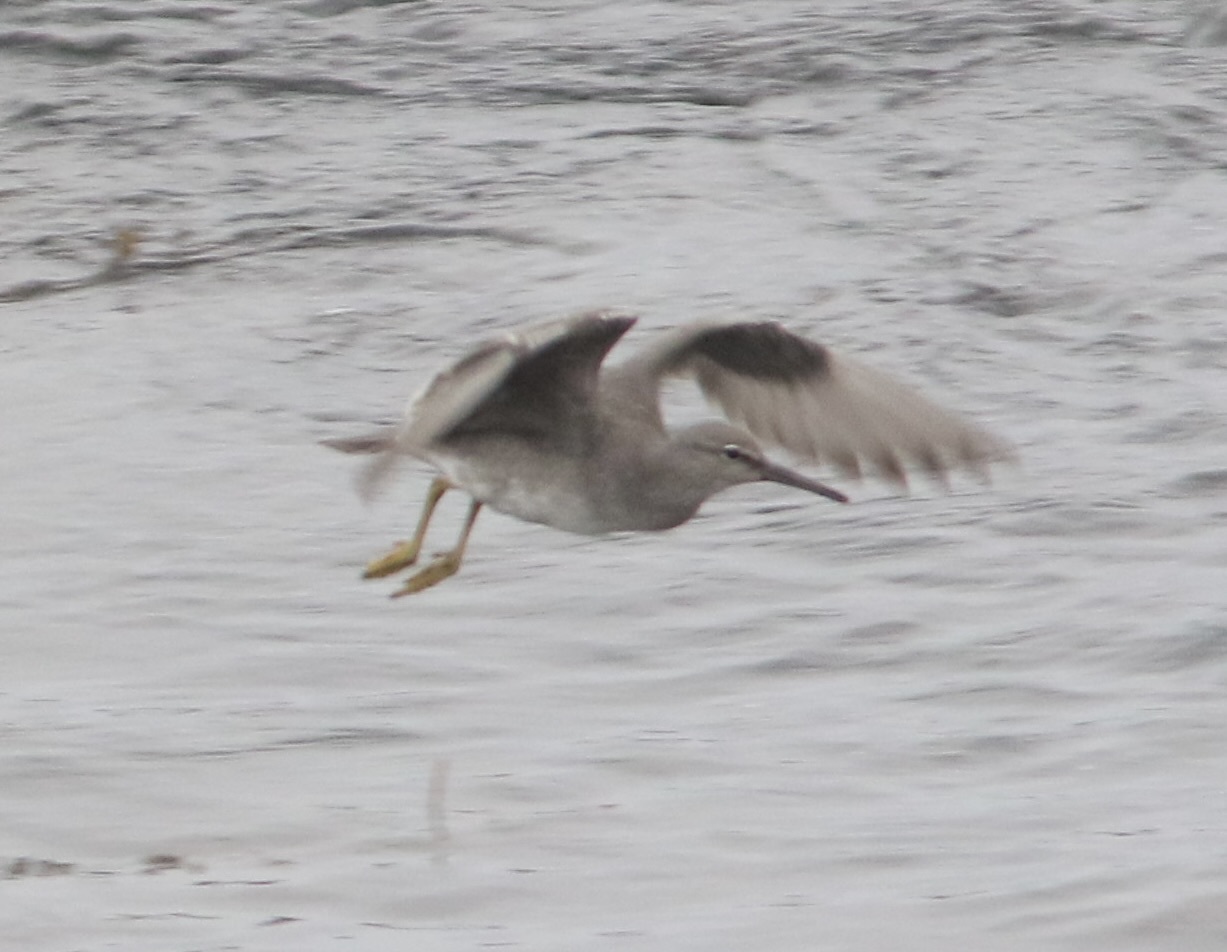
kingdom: Animalia
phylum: Chordata
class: Aves
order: Charadriiformes
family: Scolopacidae
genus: Tringa
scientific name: Tringa incana
